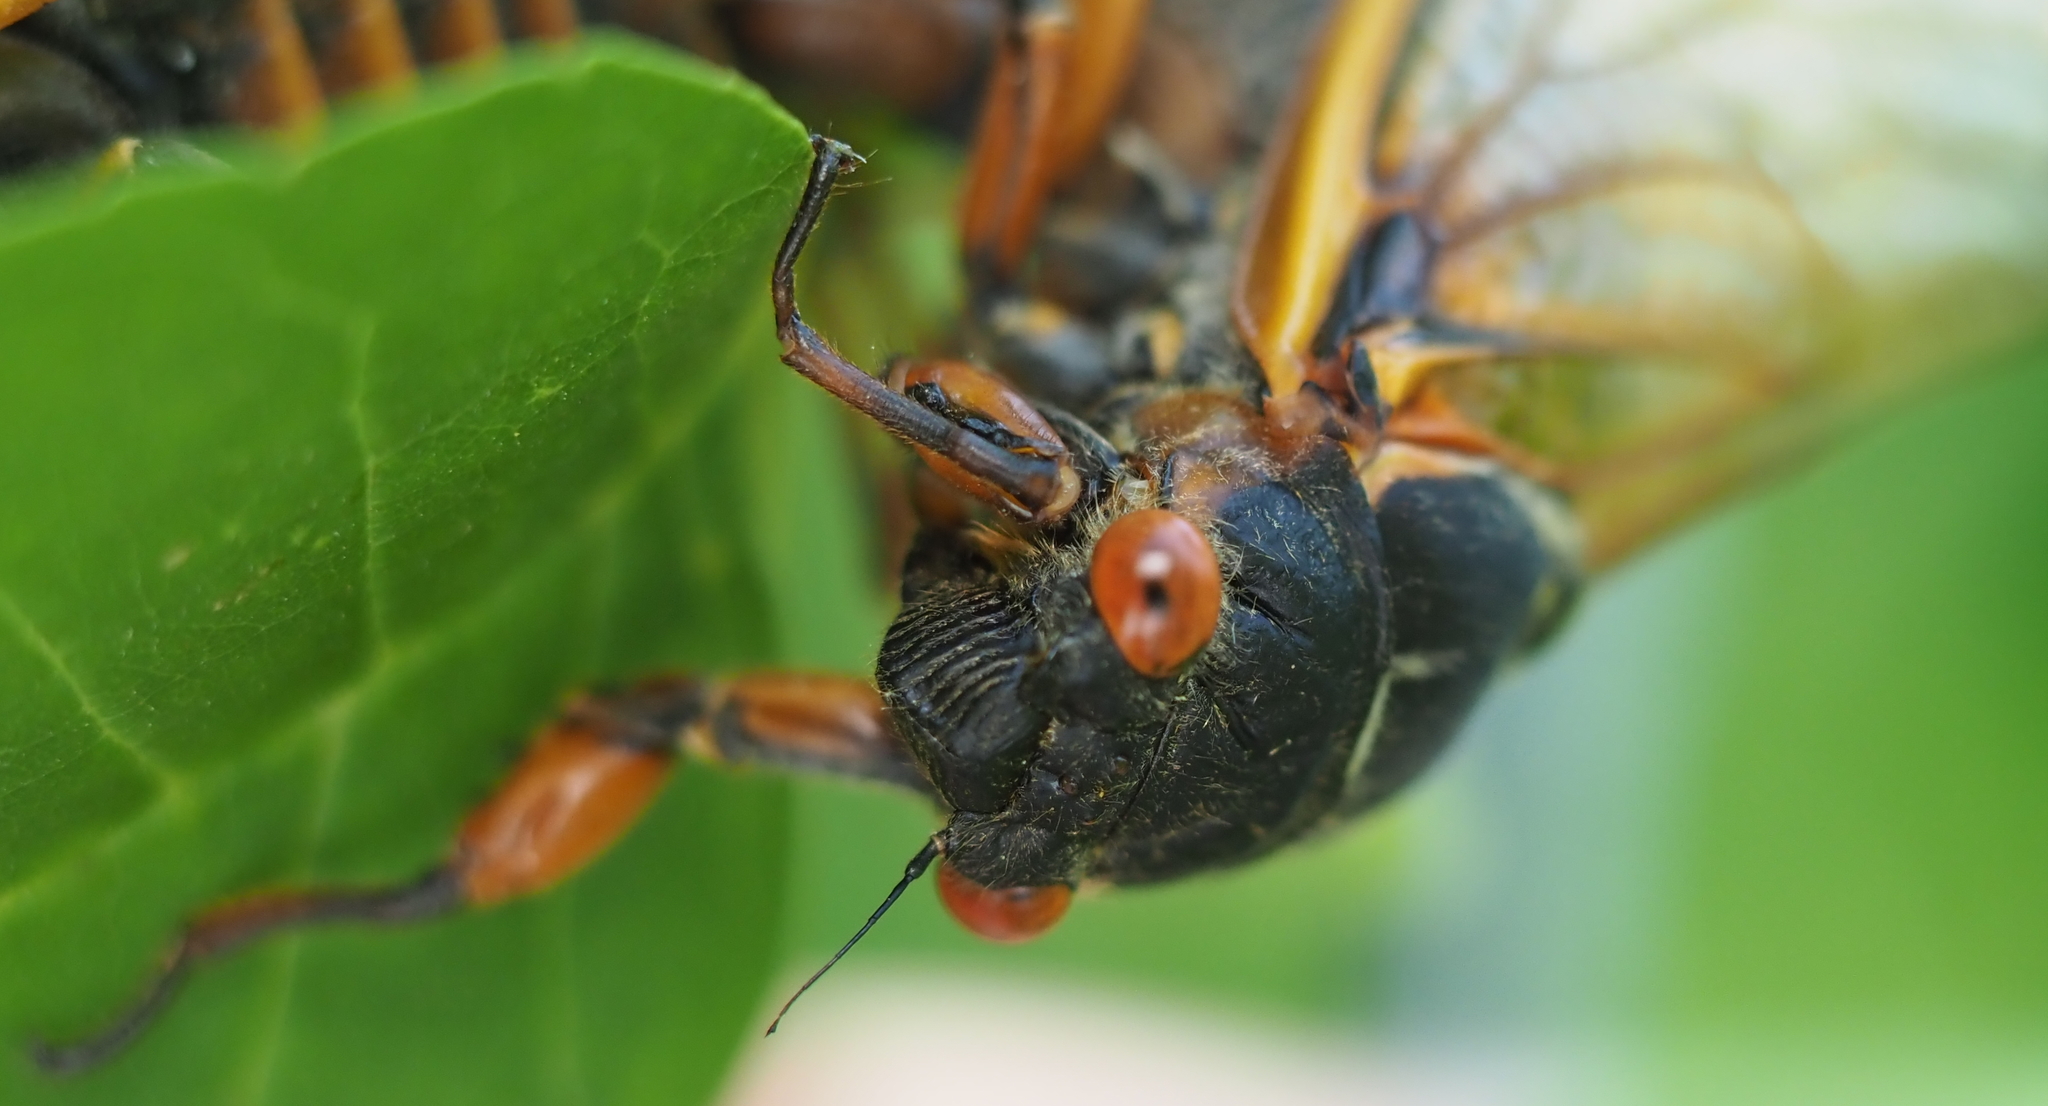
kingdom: Animalia
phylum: Arthropoda
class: Insecta
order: Hemiptera
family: Cicadidae
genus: Magicicada
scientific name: Magicicada septendecim
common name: Periodical cicada
